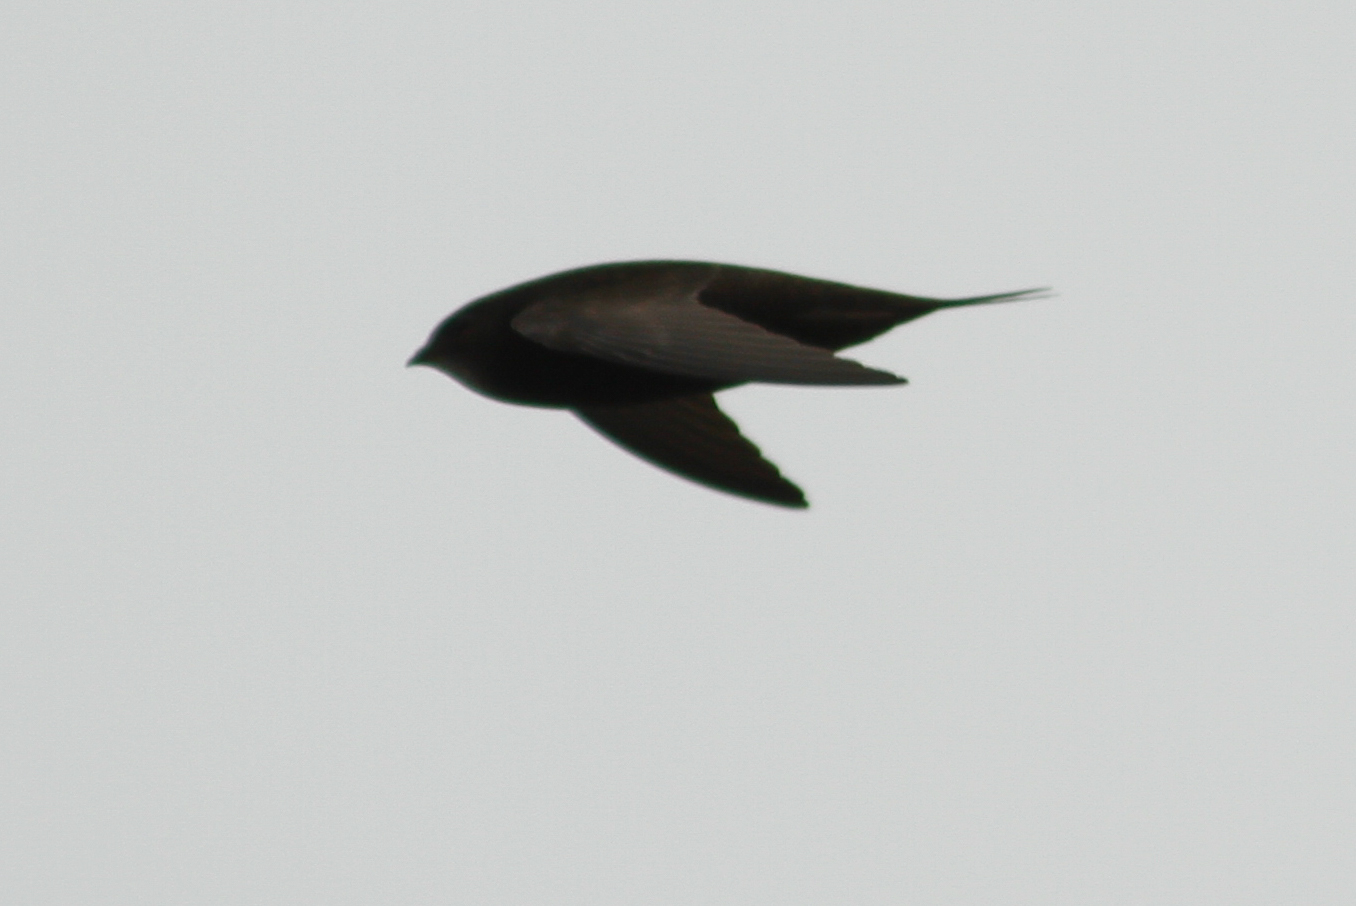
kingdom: Animalia
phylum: Chordata
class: Aves
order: Apodiformes
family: Apodidae
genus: Apus
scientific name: Apus apus
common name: Common swift
